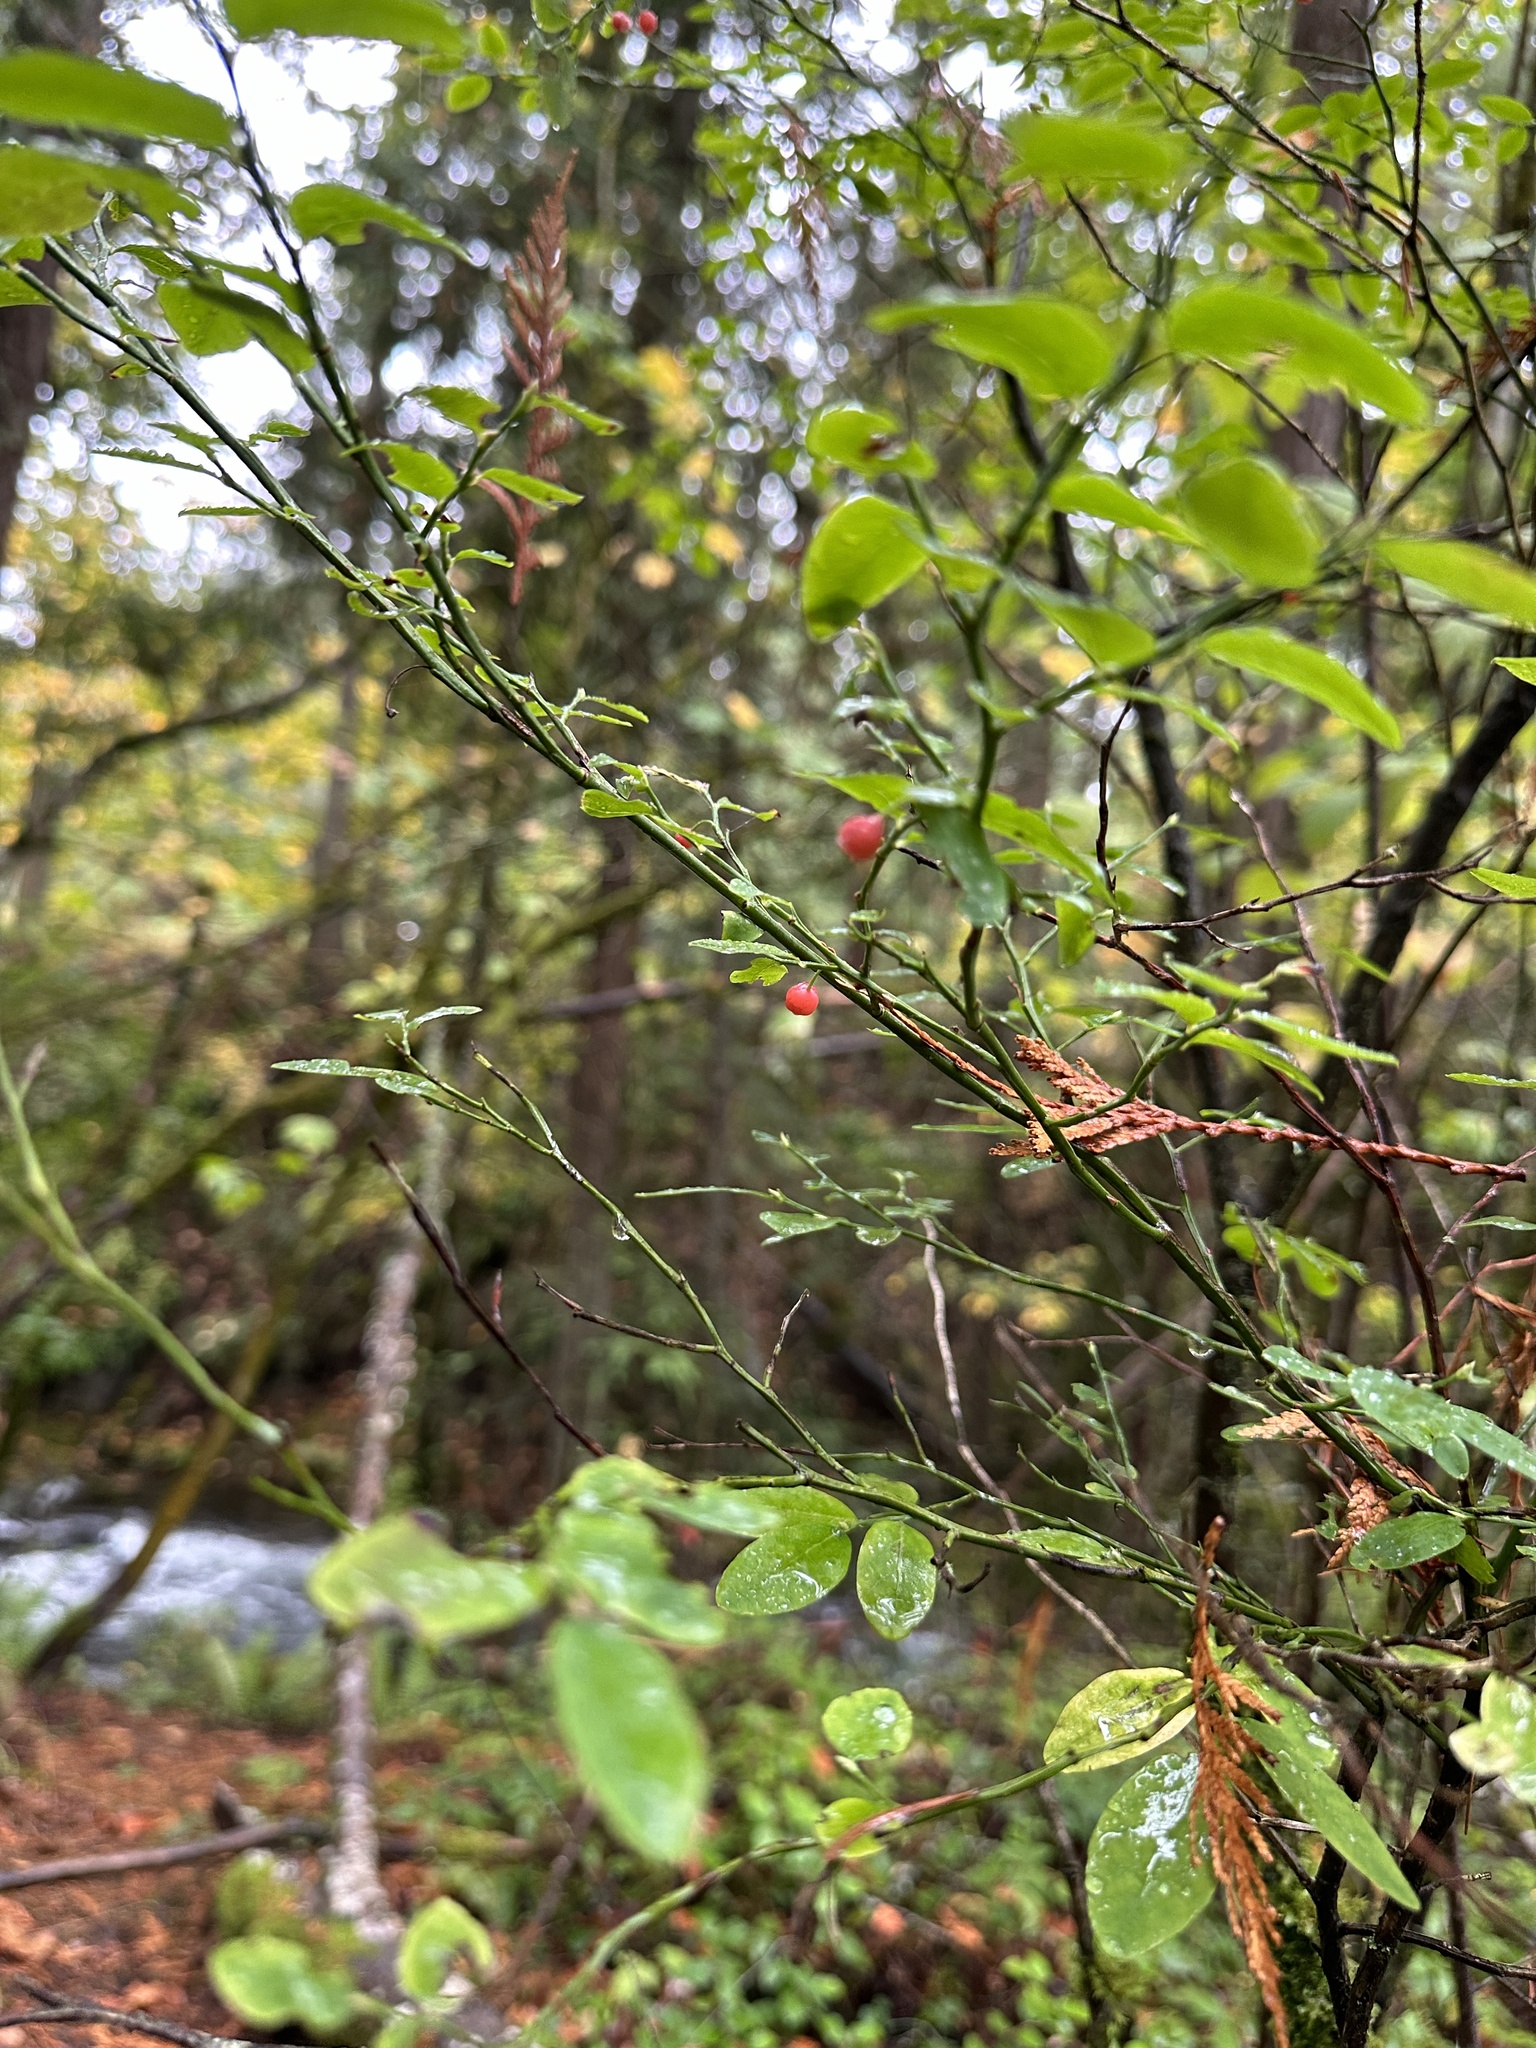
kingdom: Plantae
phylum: Tracheophyta
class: Magnoliopsida
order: Ericales
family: Ericaceae
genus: Vaccinium
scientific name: Vaccinium parvifolium
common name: Red-huckleberry
